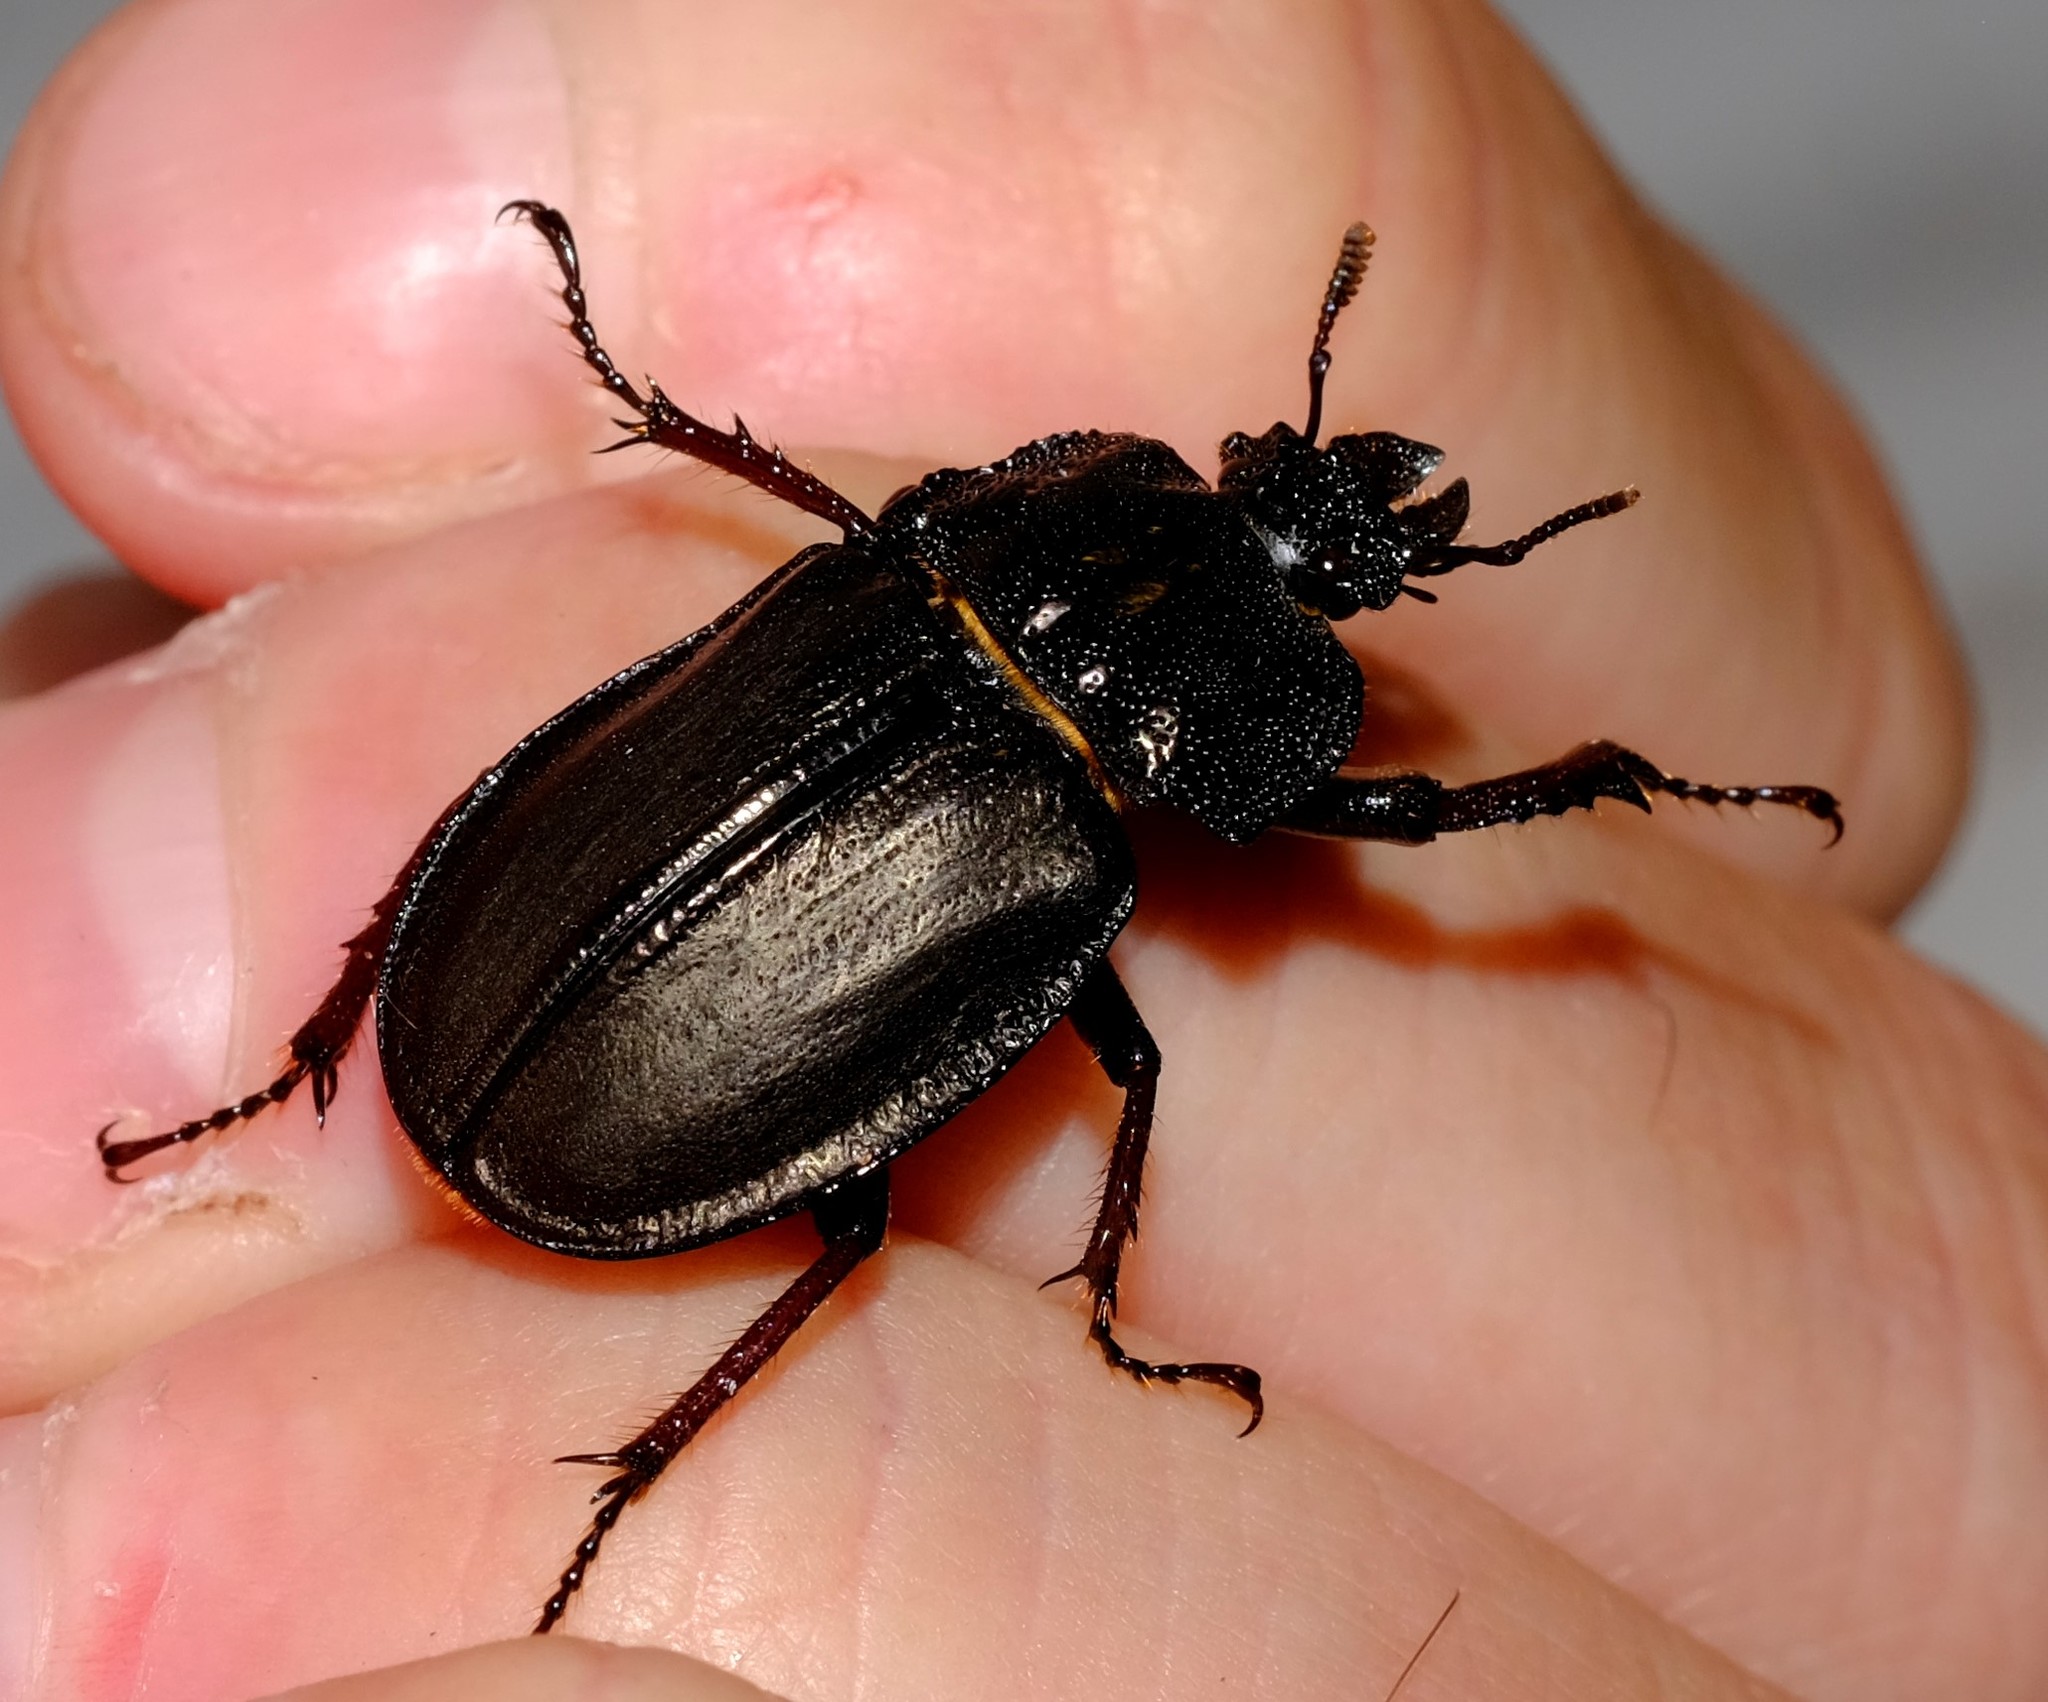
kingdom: Animalia
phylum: Arthropoda
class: Insecta
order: Coleoptera
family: Lucanidae
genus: Safrina
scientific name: Safrina jugularis
